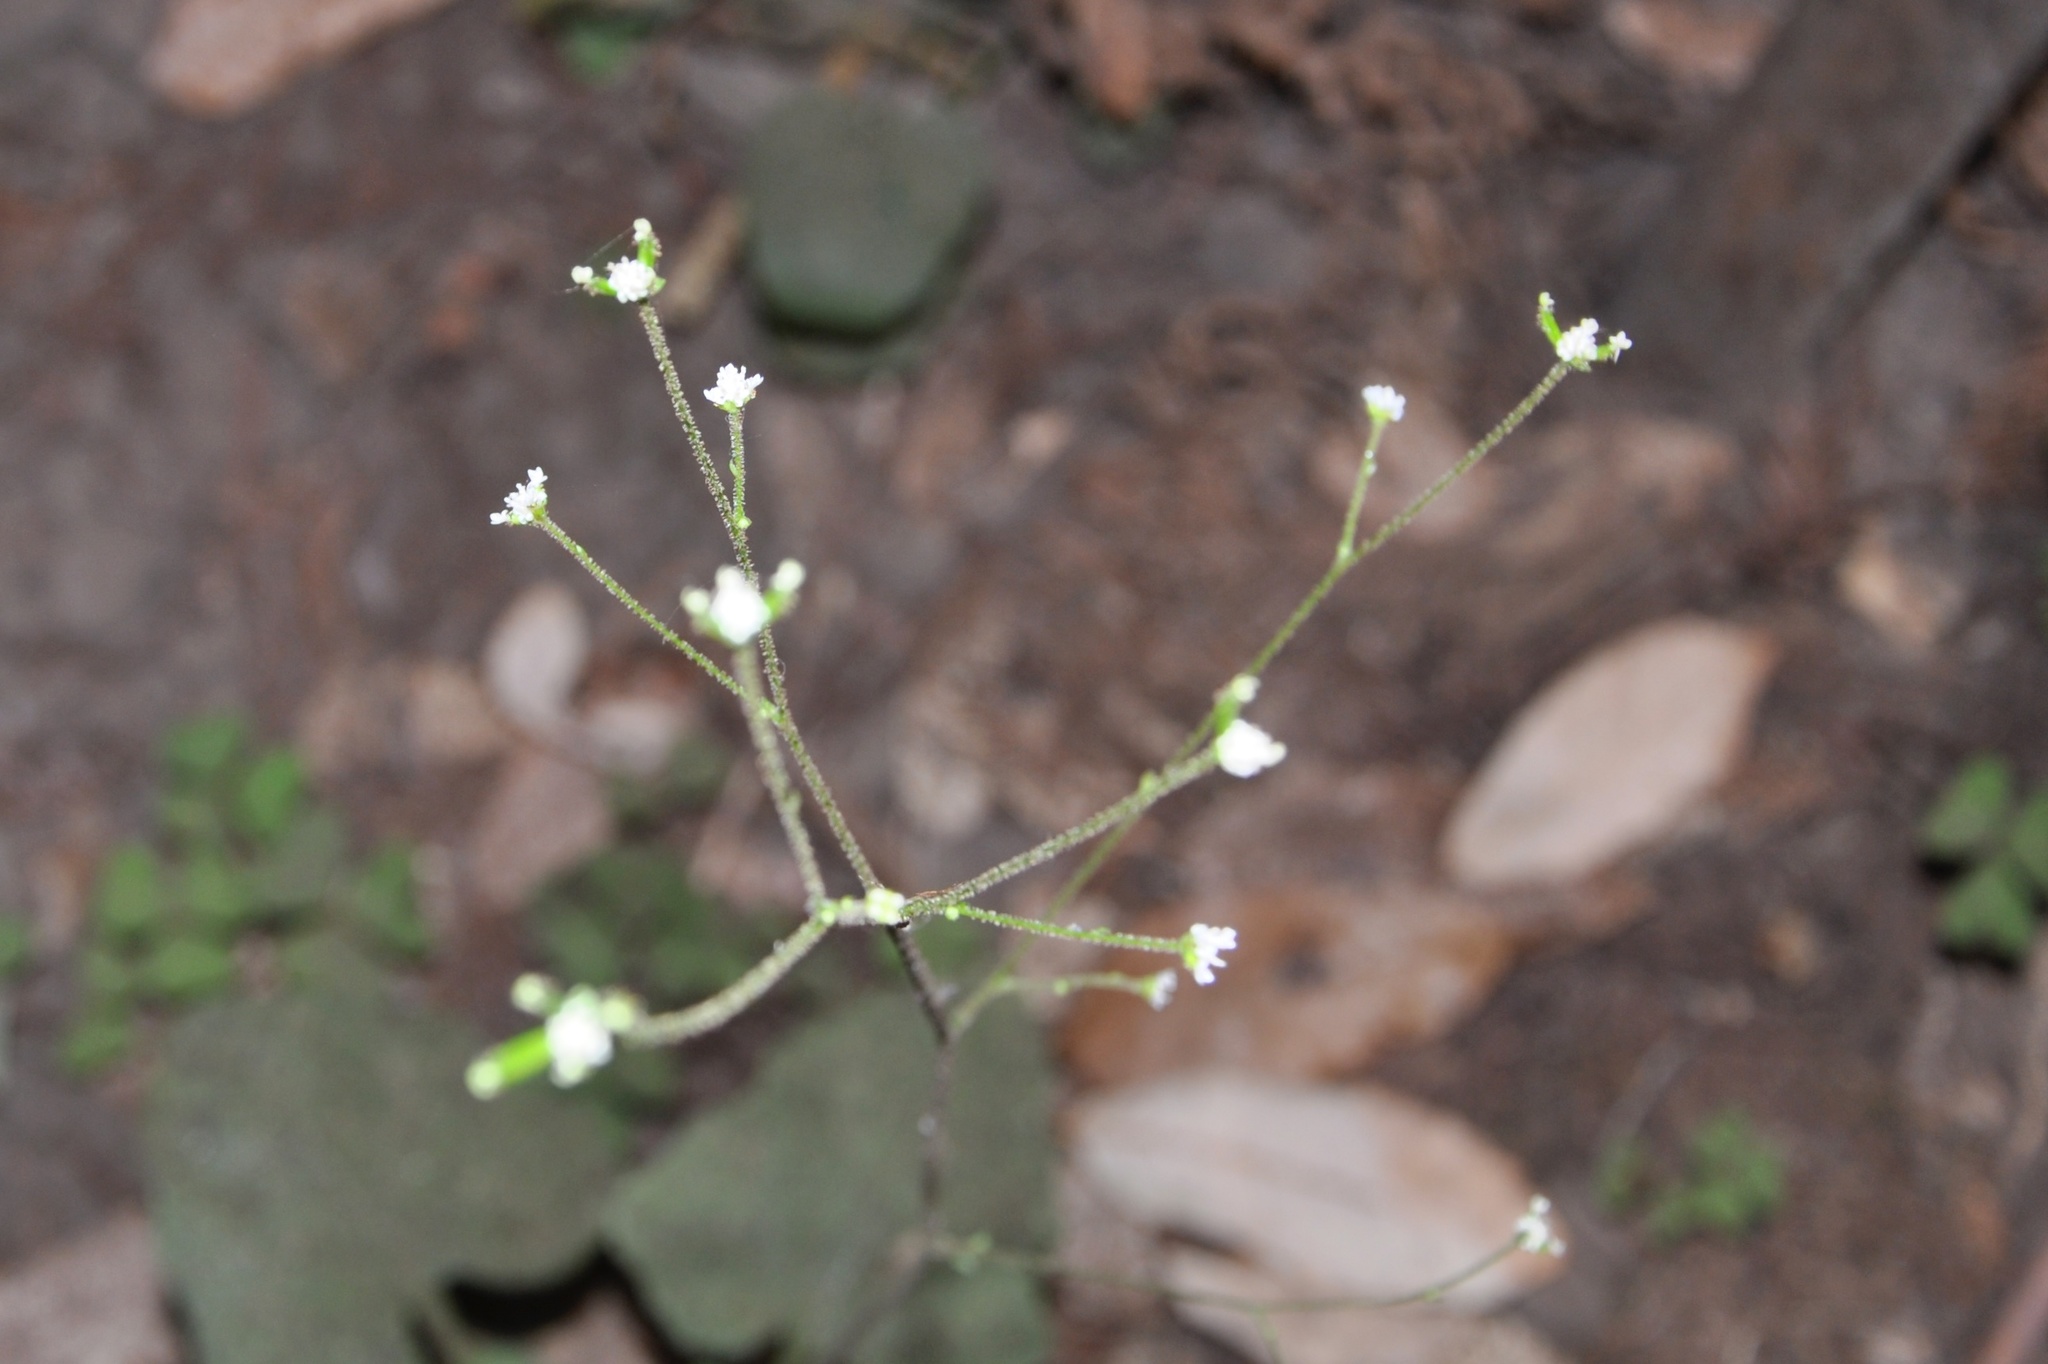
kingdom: Plantae
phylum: Tracheophyta
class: Magnoliopsida
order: Asterales
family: Asteraceae
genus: Adenocaulon
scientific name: Adenocaulon bicolor
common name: Trailplant
